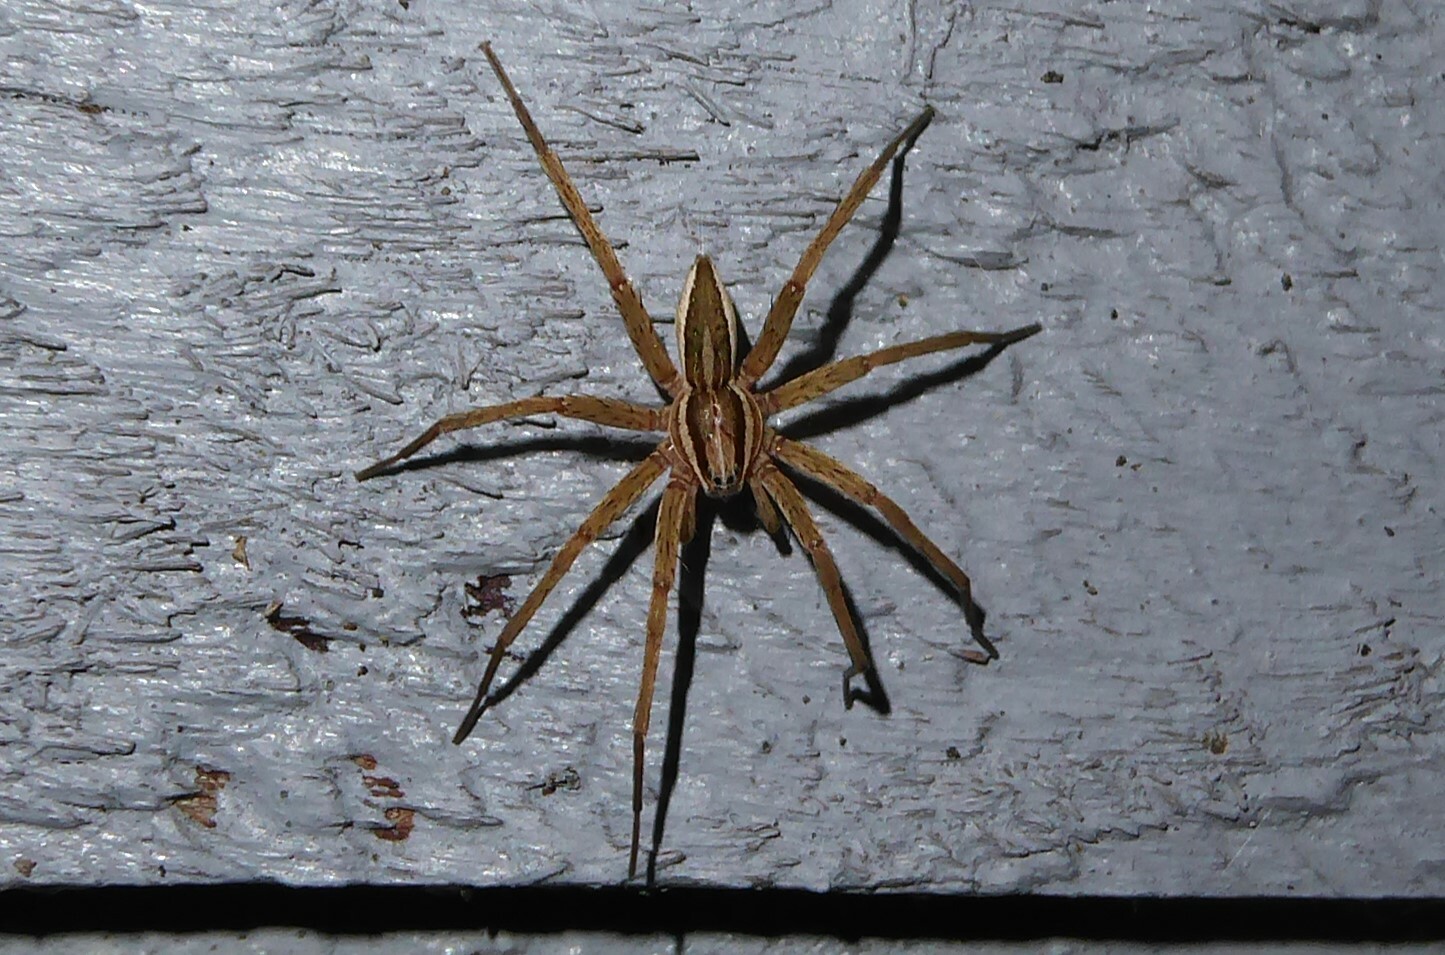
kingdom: Animalia
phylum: Arthropoda
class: Arachnida
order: Araneae
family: Pisauridae
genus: Dolomedes
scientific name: Dolomedes minor
